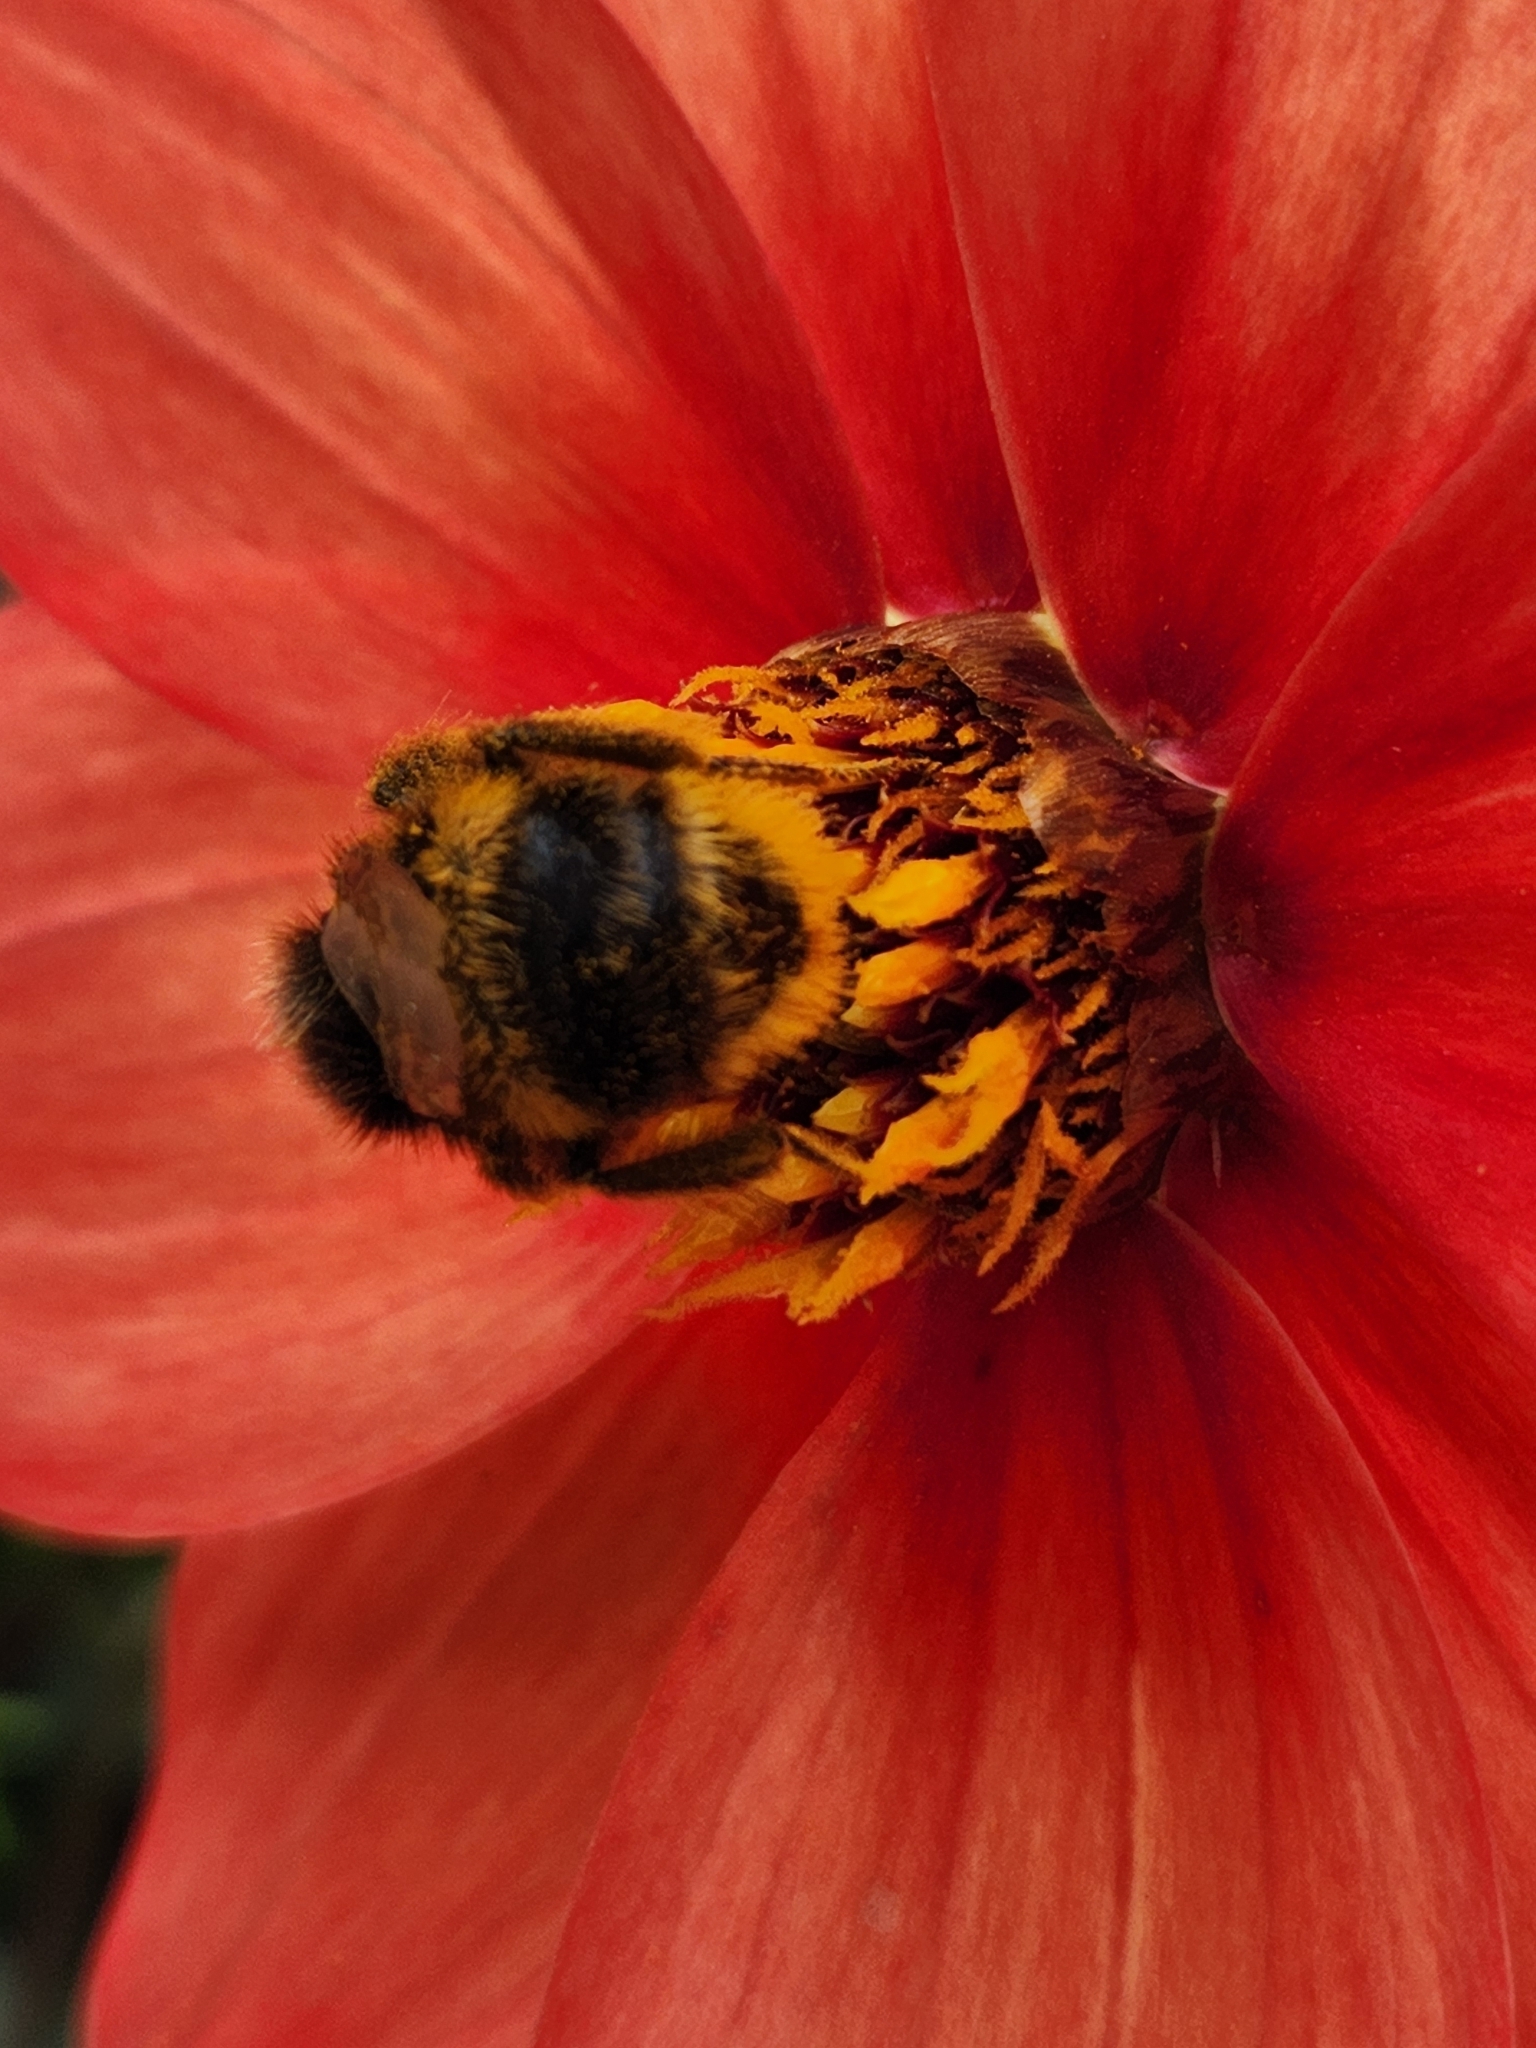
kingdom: Animalia
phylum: Arthropoda
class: Insecta
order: Hymenoptera
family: Apidae
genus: Bombus
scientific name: Bombus terrestris
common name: Buff-tailed bumblebee
